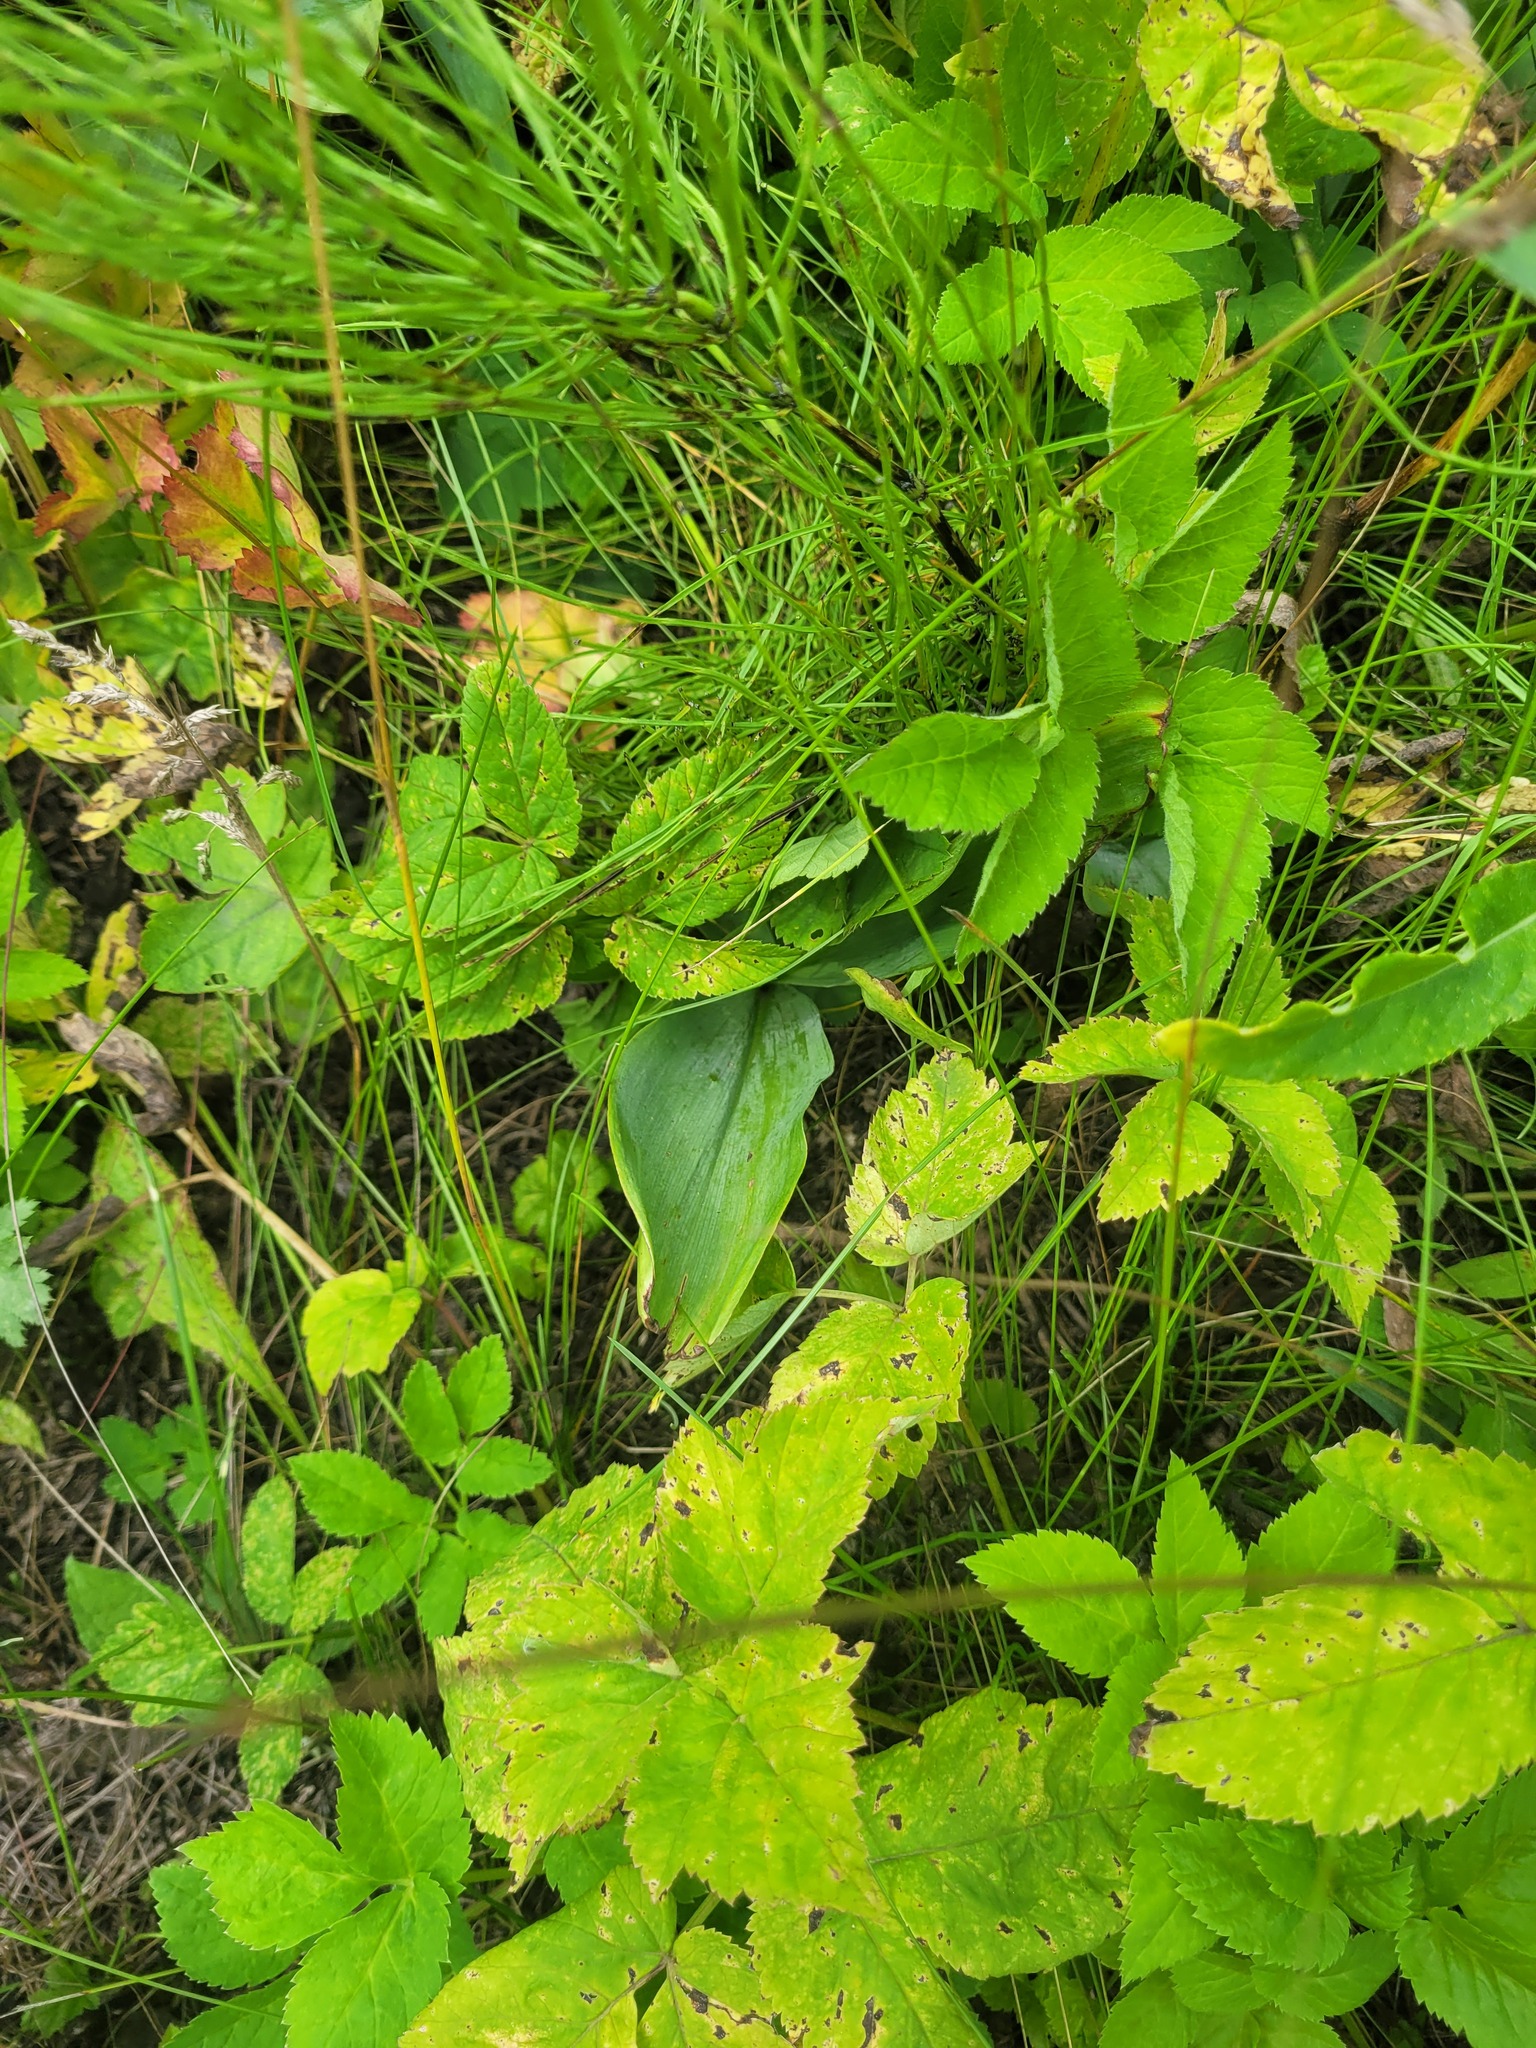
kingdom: Plantae
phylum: Tracheophyta
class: Liliopsida
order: Asparagales
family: Asparagaceae
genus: Convallaria
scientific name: Convallaria majalis
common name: Lily-of-the-valley
